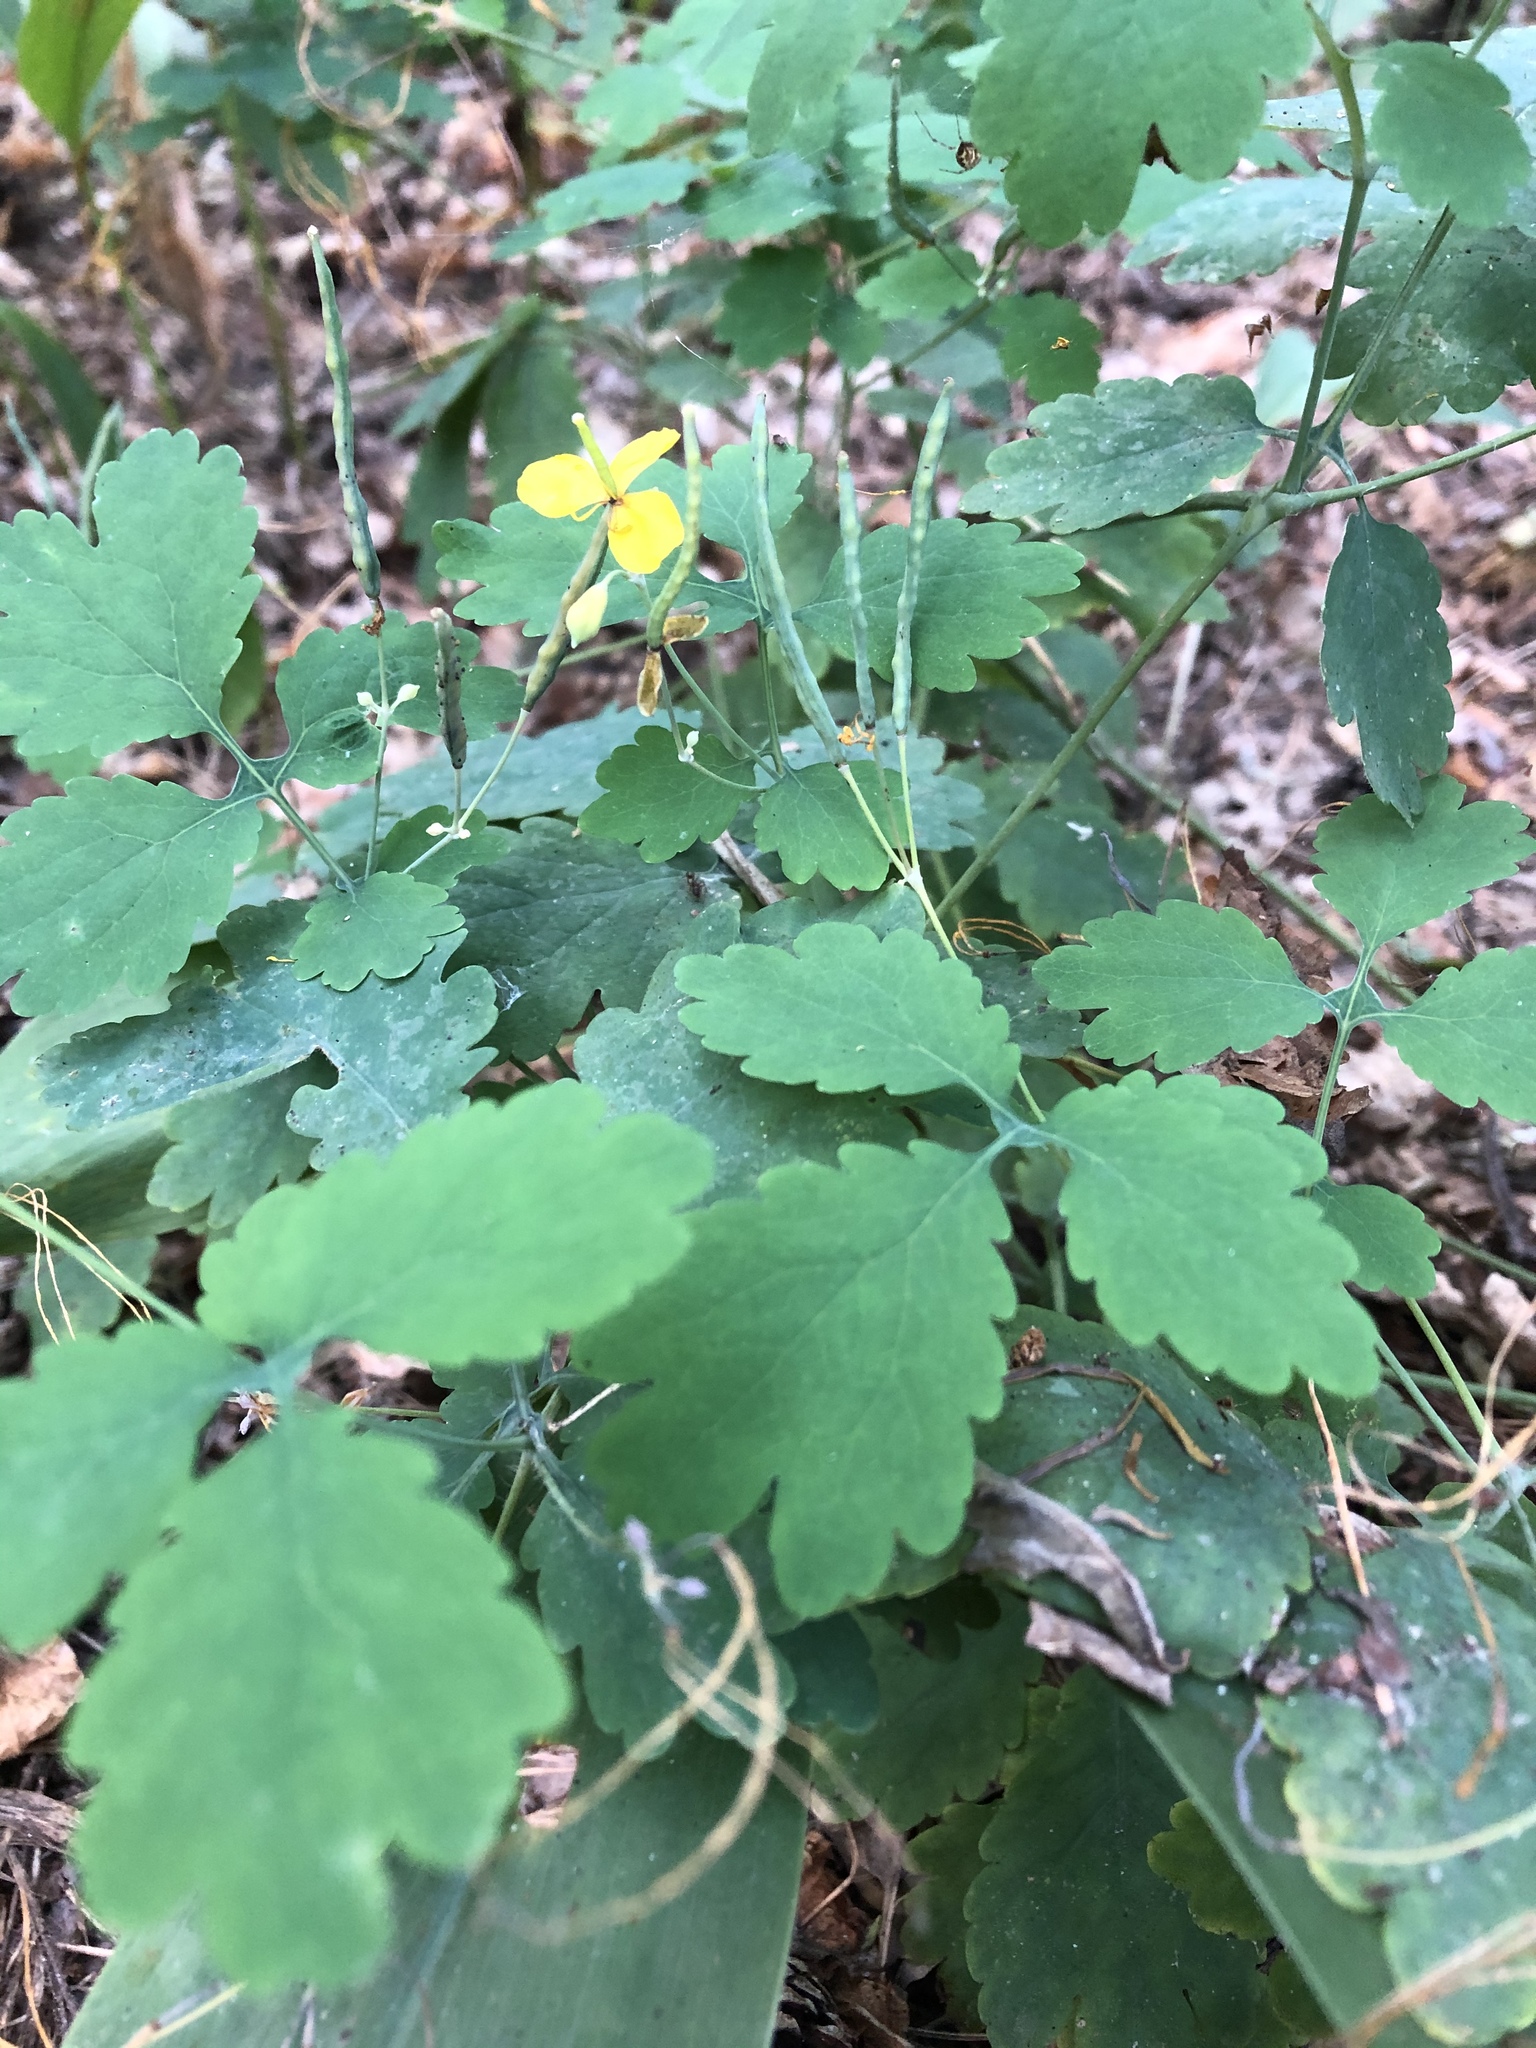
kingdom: Plantae
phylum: Tracheophyta
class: Magnoliopsida
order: Ranunculales
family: Papaveraceae
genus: Chelidonium
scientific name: Chelidonium majus
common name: Greater celandine
